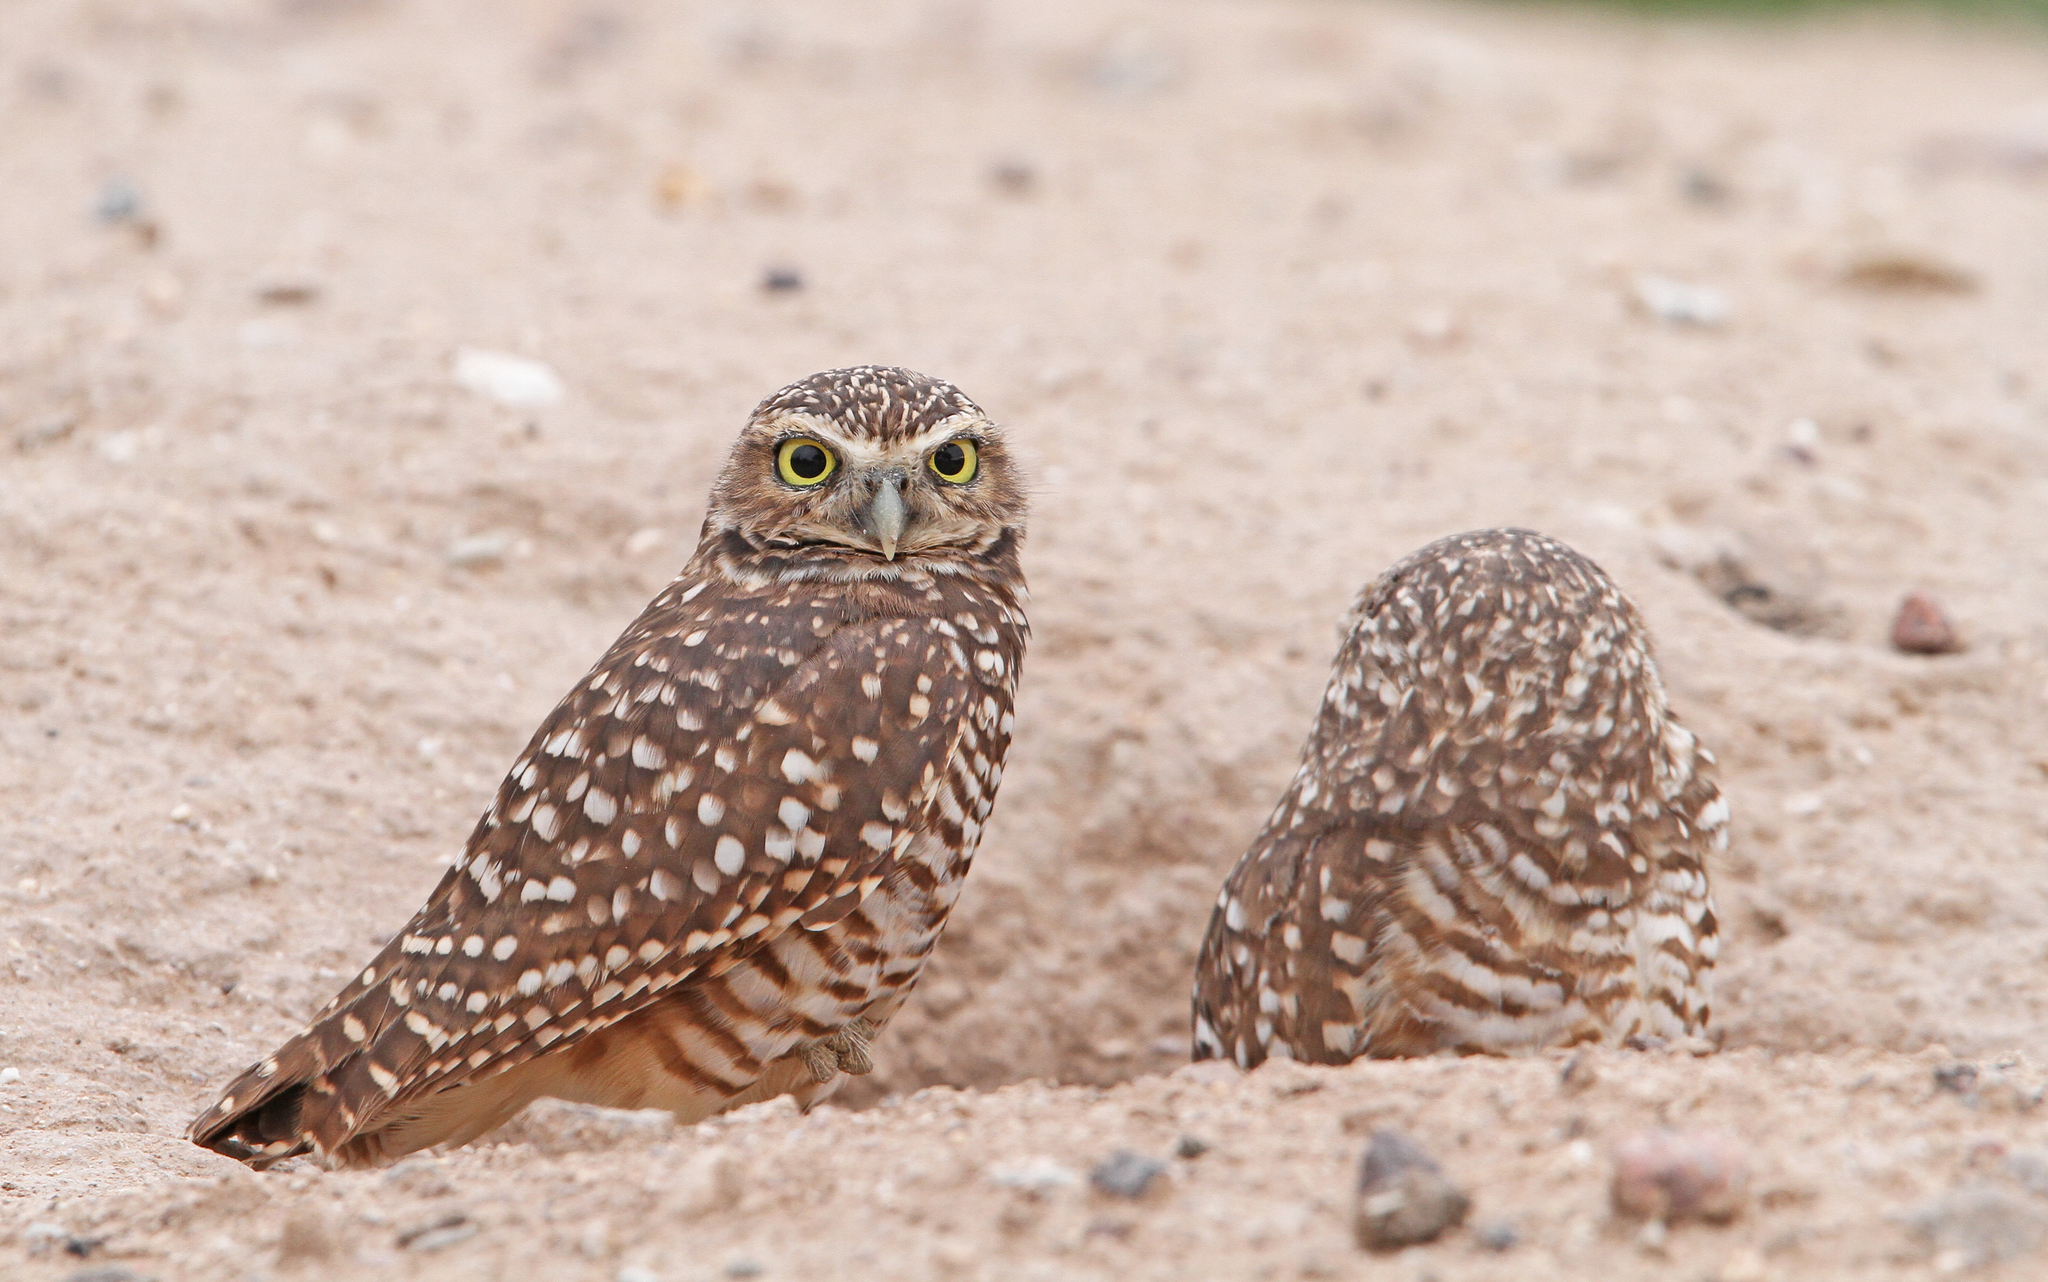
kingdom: Animalia
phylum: Chordata
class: Aves
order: Strigiformes
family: Strigidae
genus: Athene
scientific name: Athene cunicularia
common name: Burrowing owl
